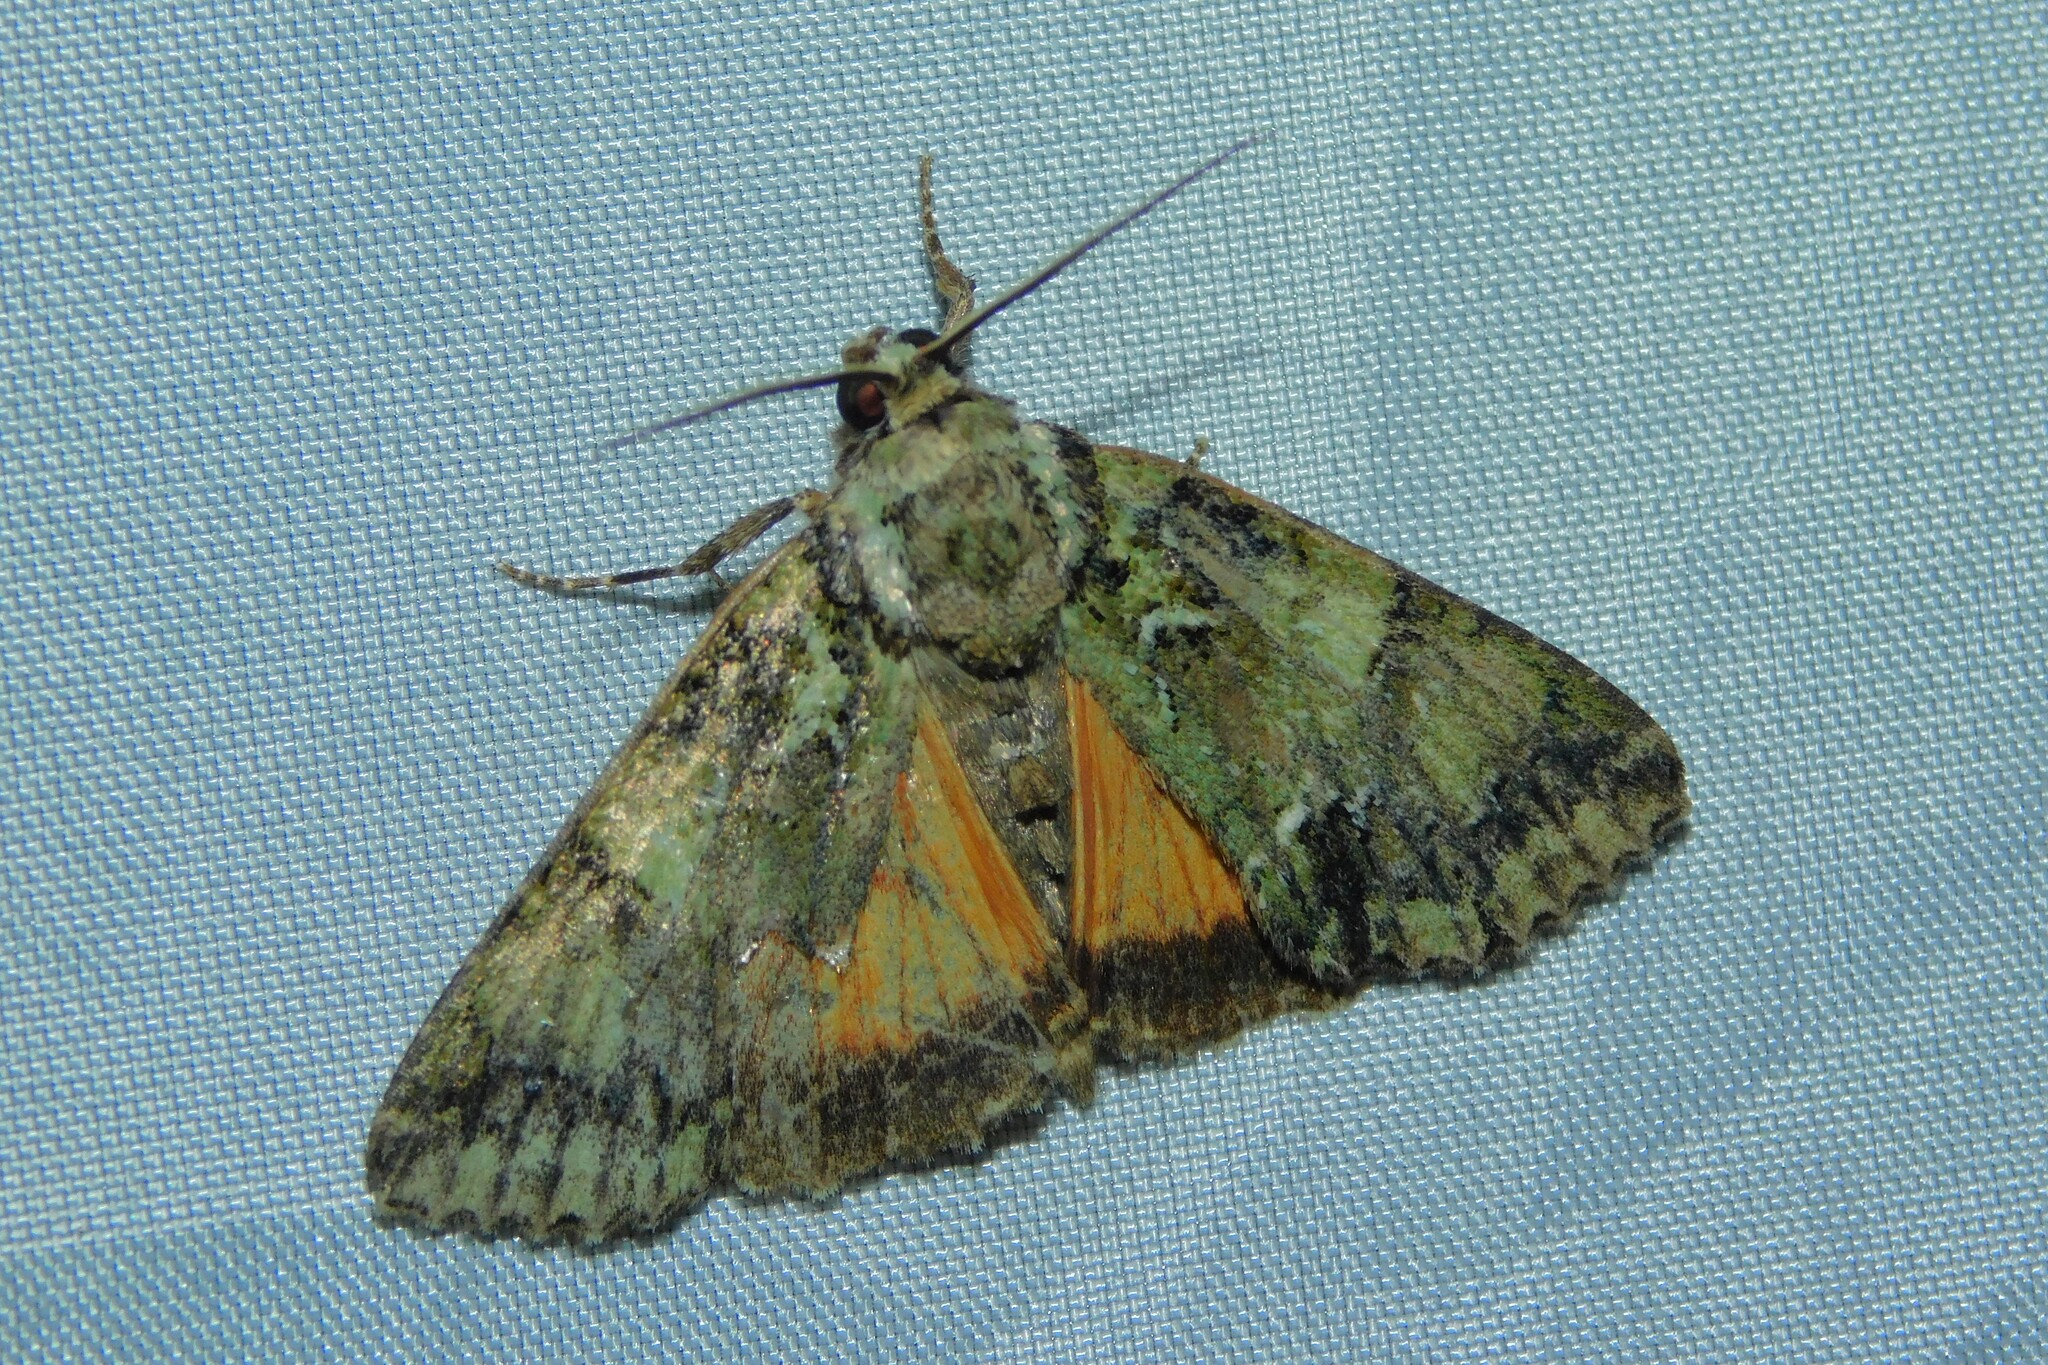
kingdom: Animalia
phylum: Arthropoda
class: Insecta
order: Lepidoptera
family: Noctuidae
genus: Polyphaenis
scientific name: Polyphaenis sericata
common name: Guernsey underwing
